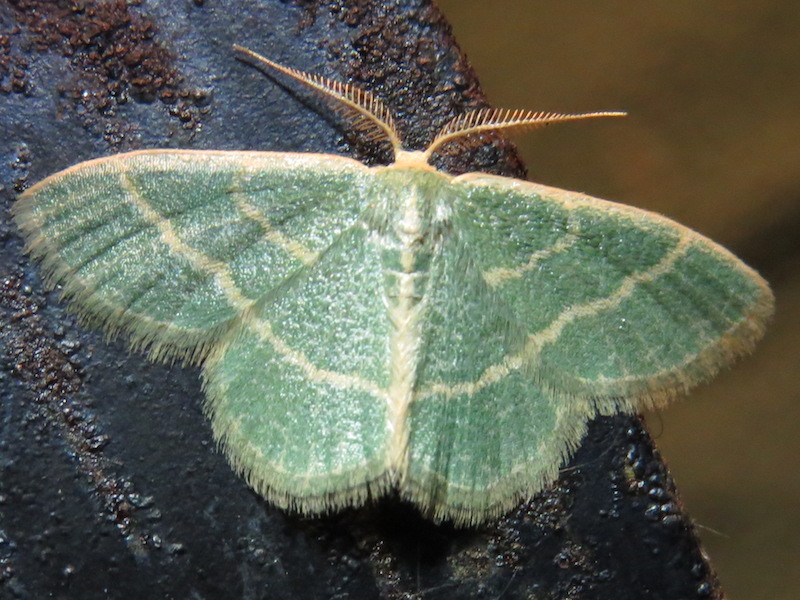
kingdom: Animalia
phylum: Arthropoda
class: Insecta
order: Lepidoptera
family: Geometridae
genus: Chlorochlamys
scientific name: Chlorochlamys chloroleucaria
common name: Blackberry looper
